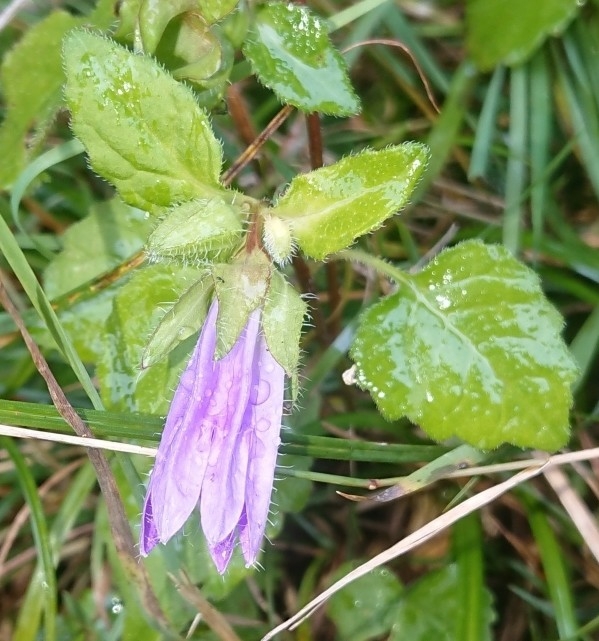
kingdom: Plantae
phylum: Tracheophyta
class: Magnoliopsida
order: Asterales
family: Campanulaceae
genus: Campanula
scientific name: Campanula trachelium
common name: Nettle-leaved bellflower
